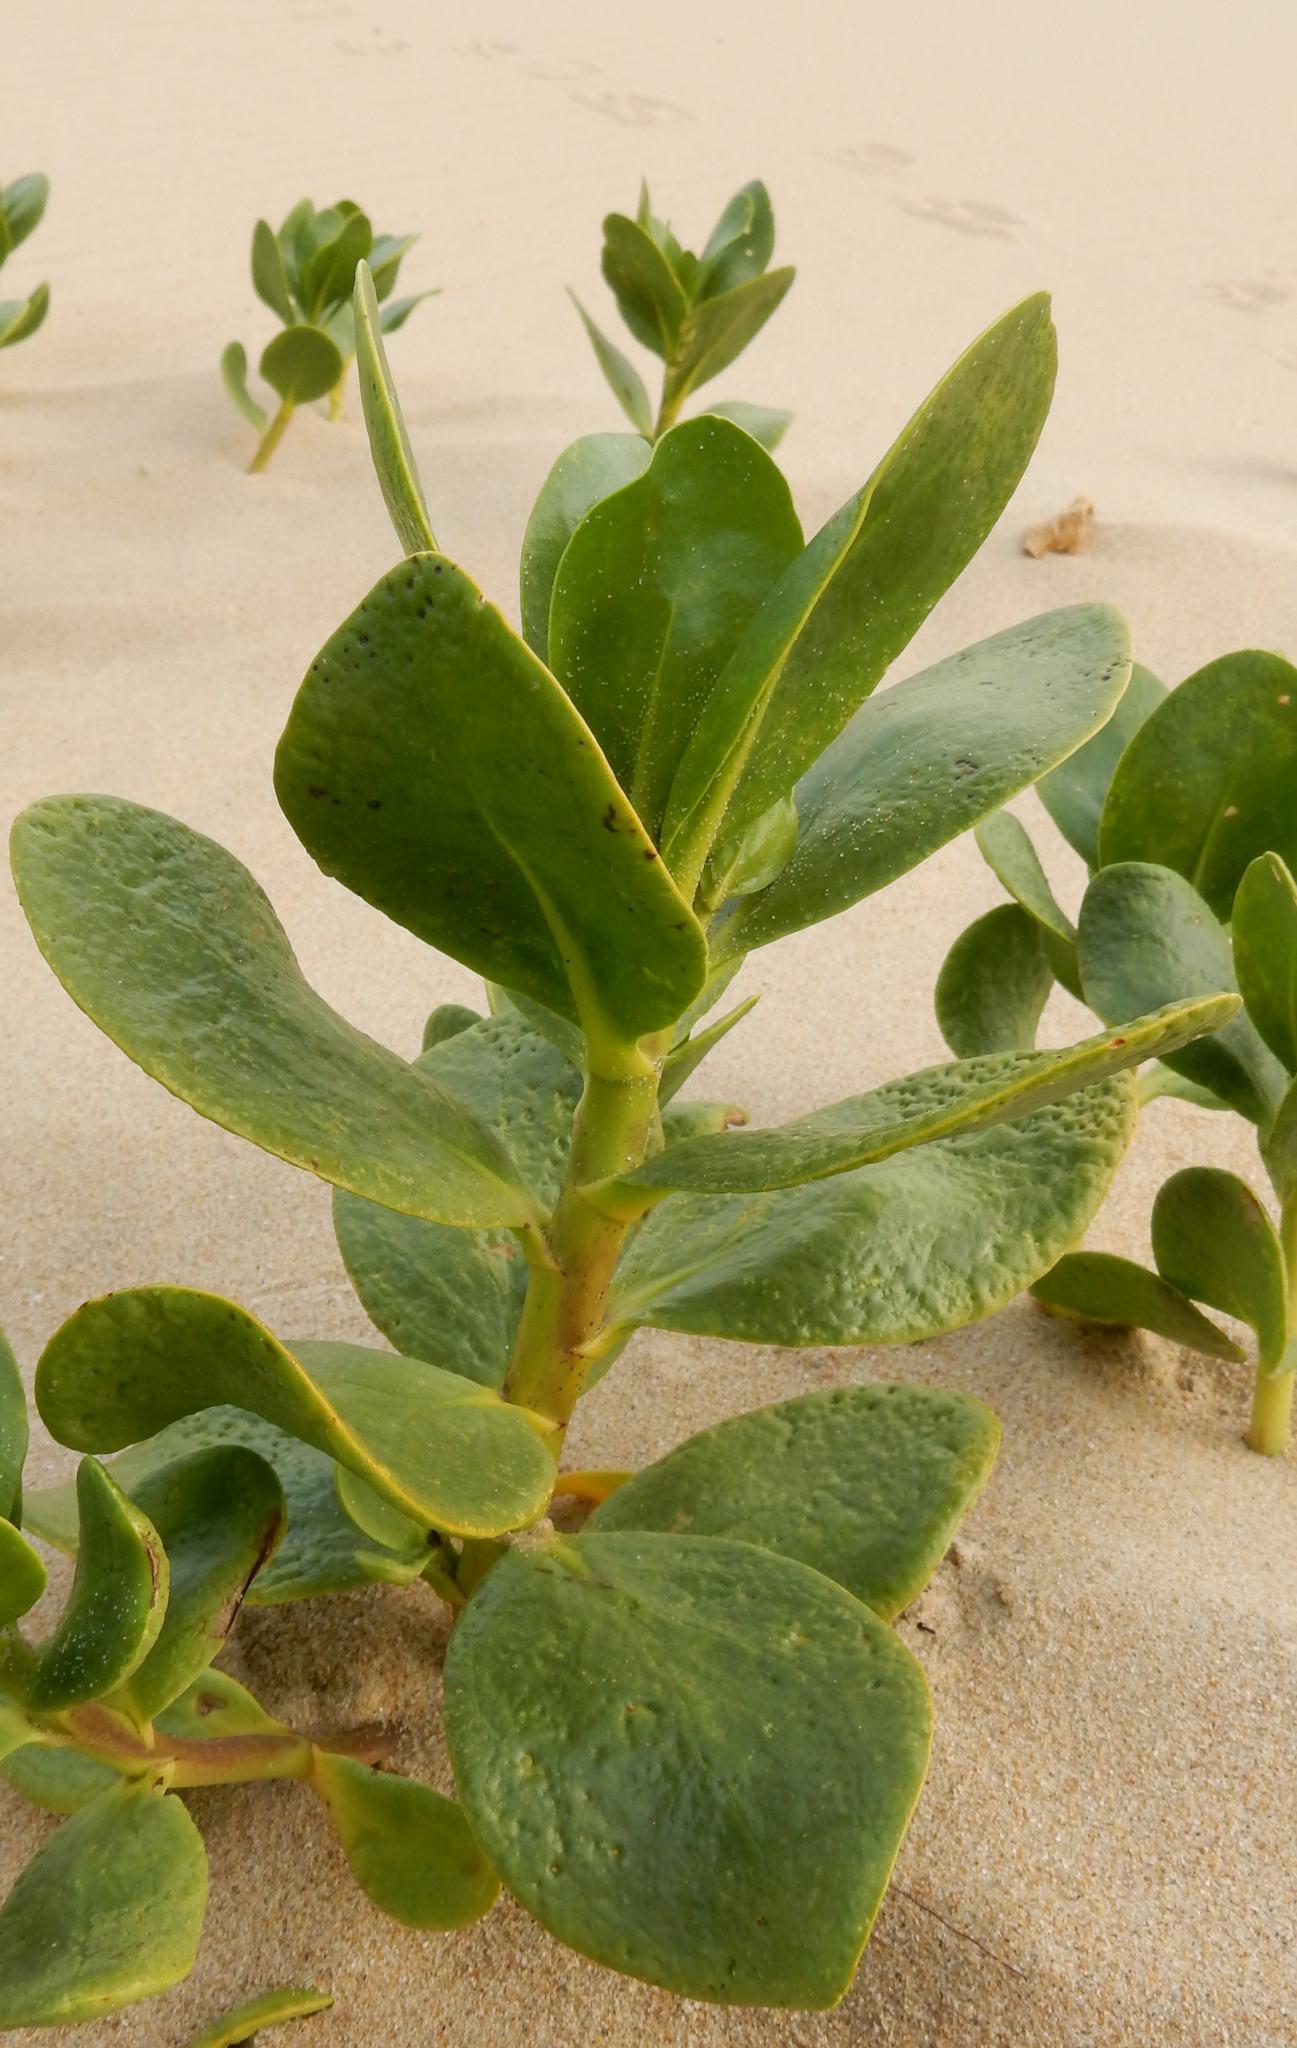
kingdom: Plantae
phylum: Tracheophyta
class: Magnoliopsida
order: Asterales
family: Goodeniaceae
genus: Scaevola
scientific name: Scaevola plumieri
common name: Gull feed
